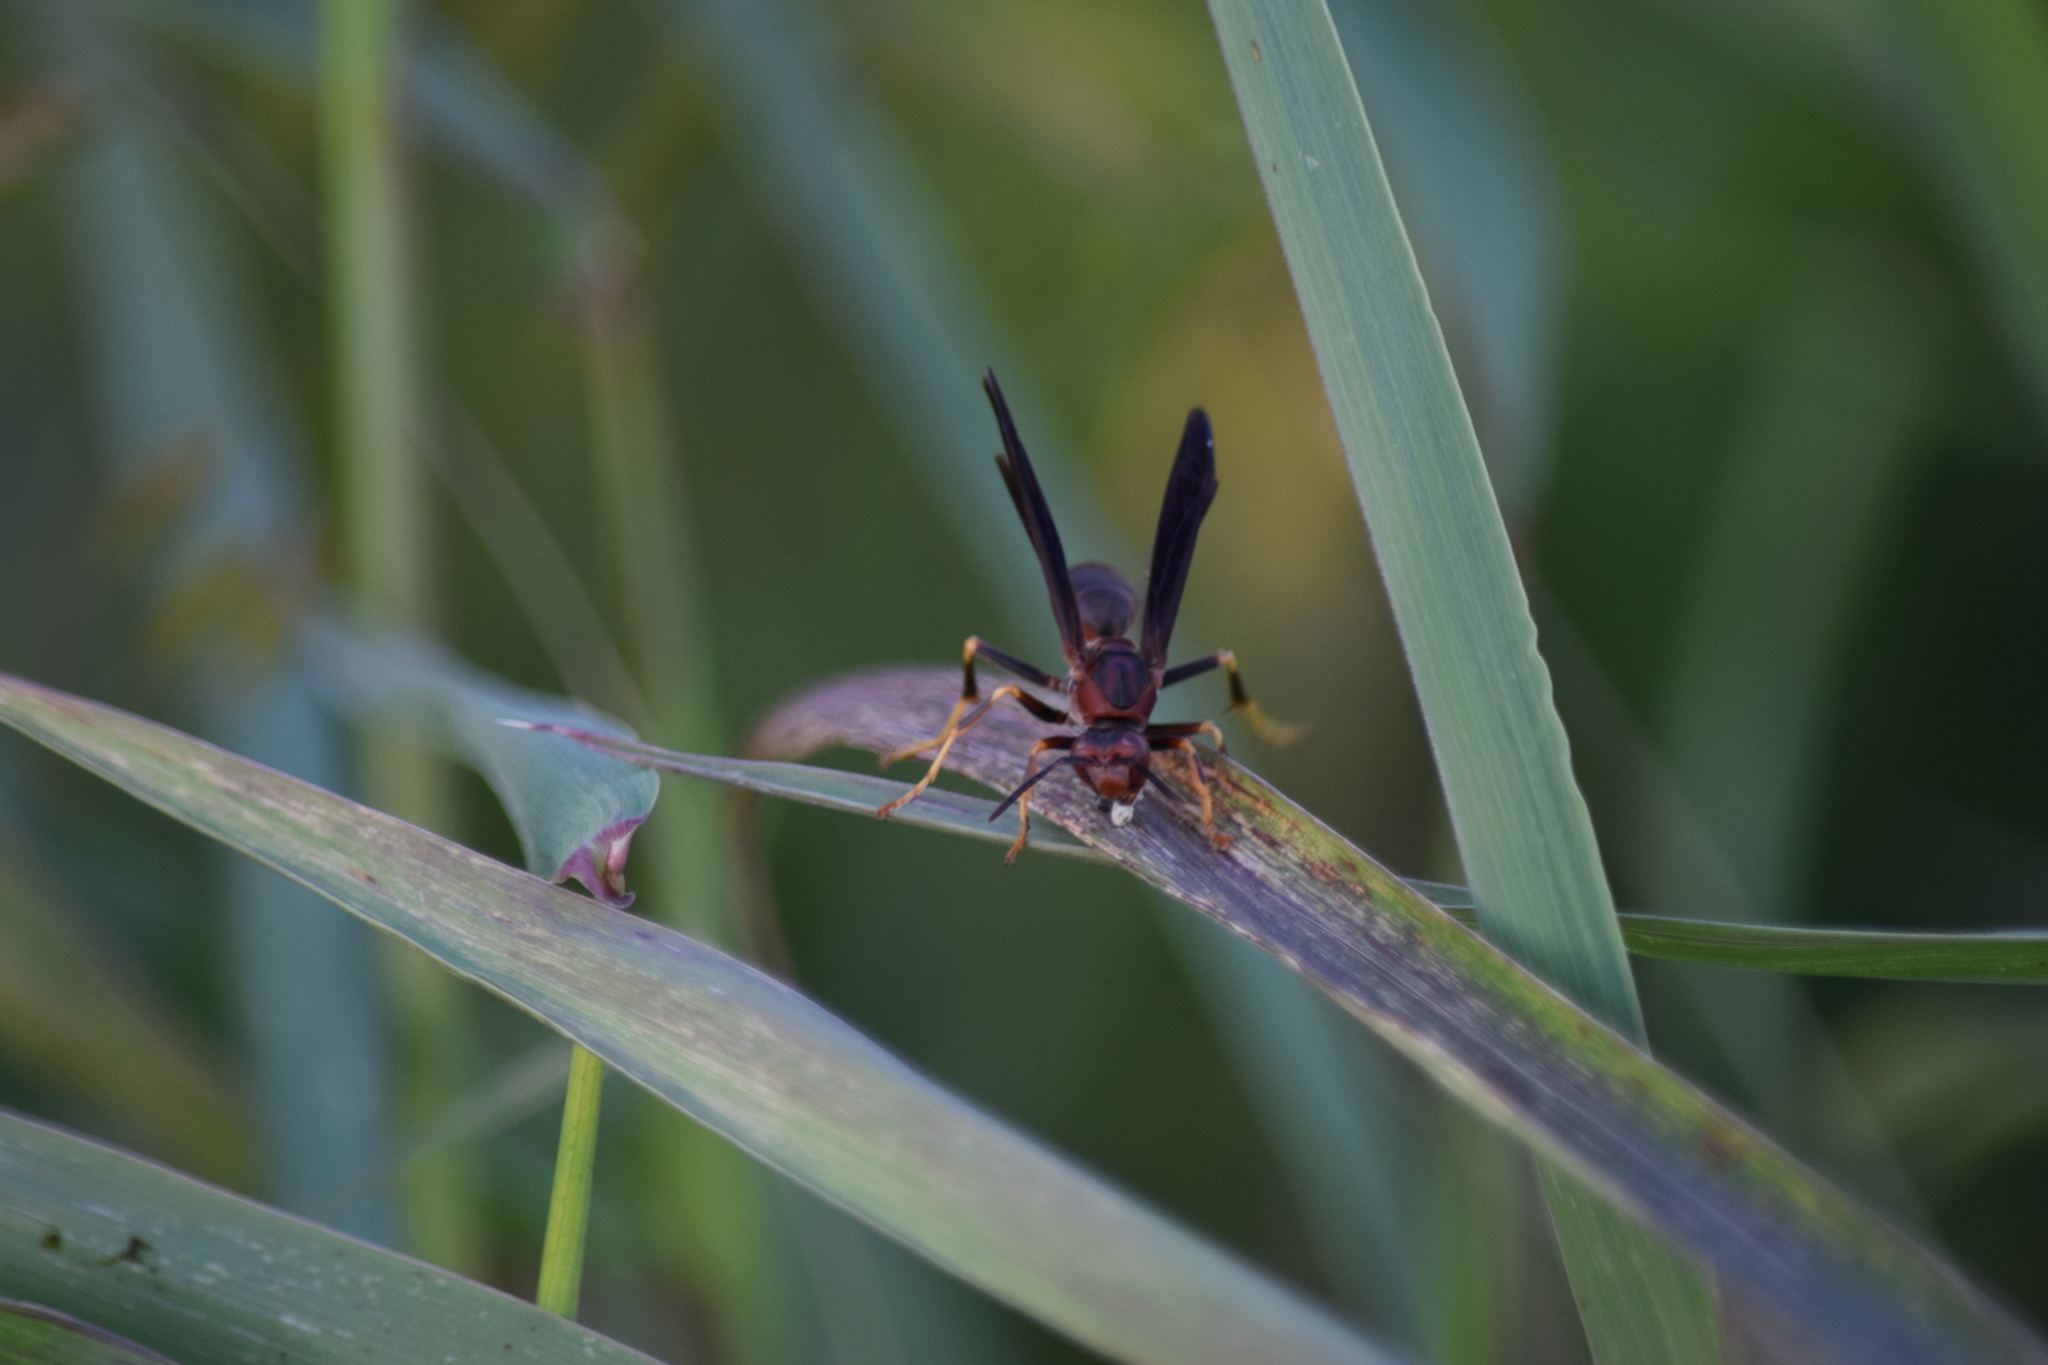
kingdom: Animalia
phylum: Arthropoda
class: Insecta
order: Hymenoptera
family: Eumenidae
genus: Polistes
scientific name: Polistes metricus
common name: Metric paper wasp
